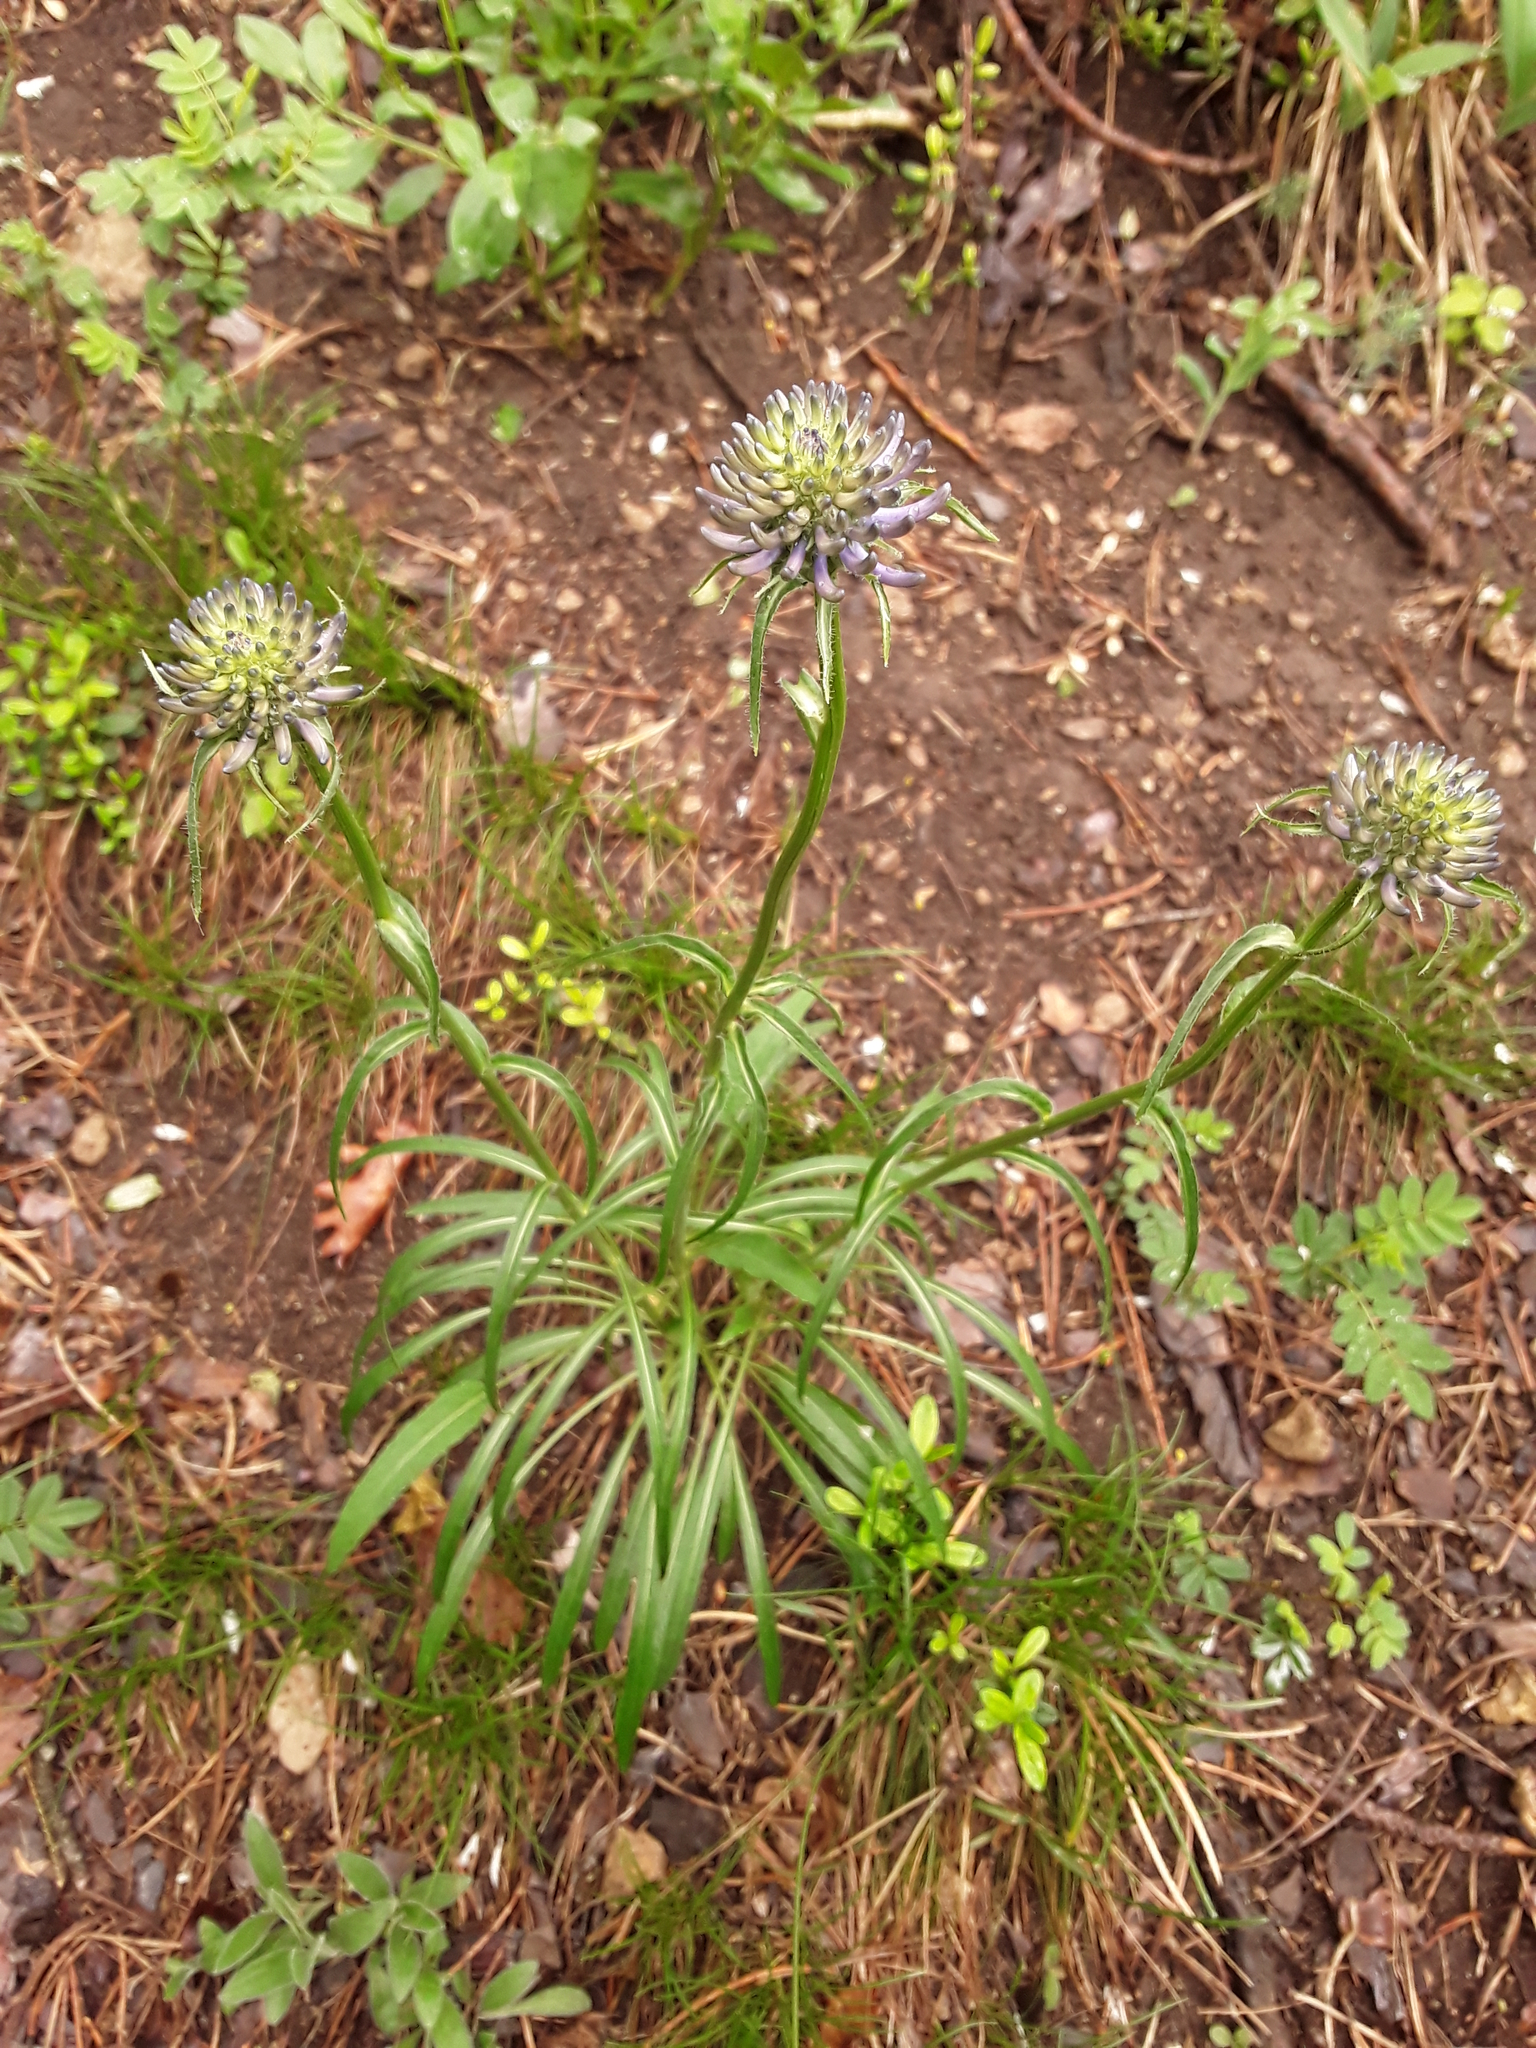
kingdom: Plantae
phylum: Tracheophyta
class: Magnoliopsida
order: Asterales
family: Campanulaceae
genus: Phyteuma
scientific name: Phyteuma orbiculare
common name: Round-headed rampion
